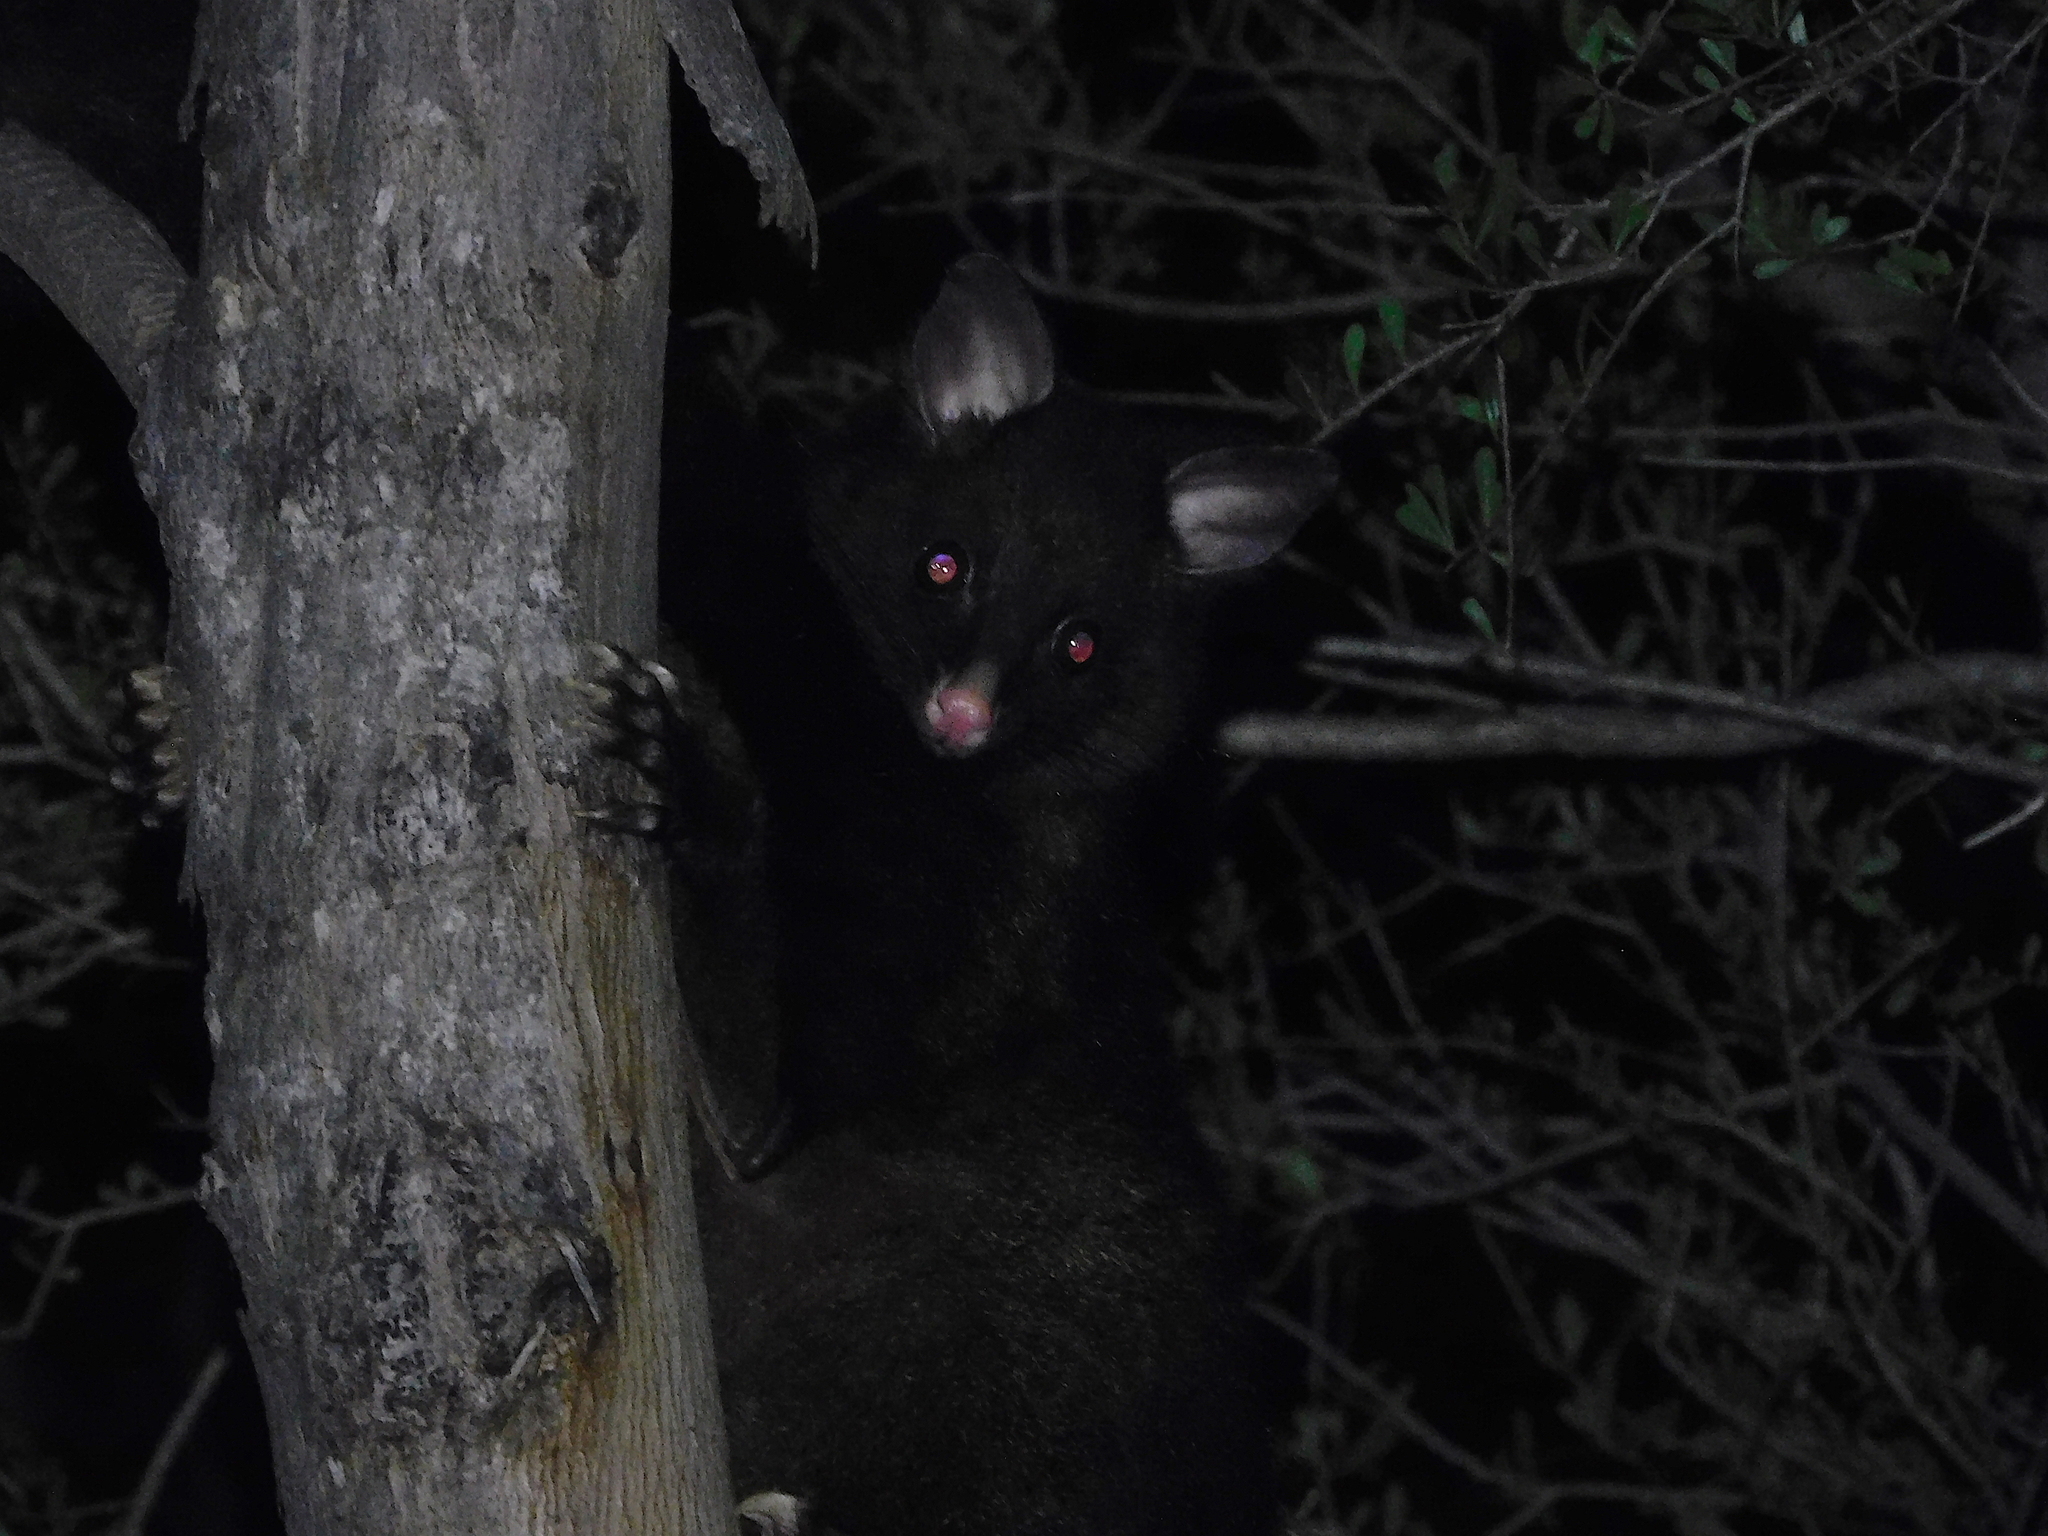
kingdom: Animalia
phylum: Chordata
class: Mammalia
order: Diprotodontia
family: Phalangeridae
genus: Trichosurus
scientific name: Trichosurus vulpecula
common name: Common brushtail
